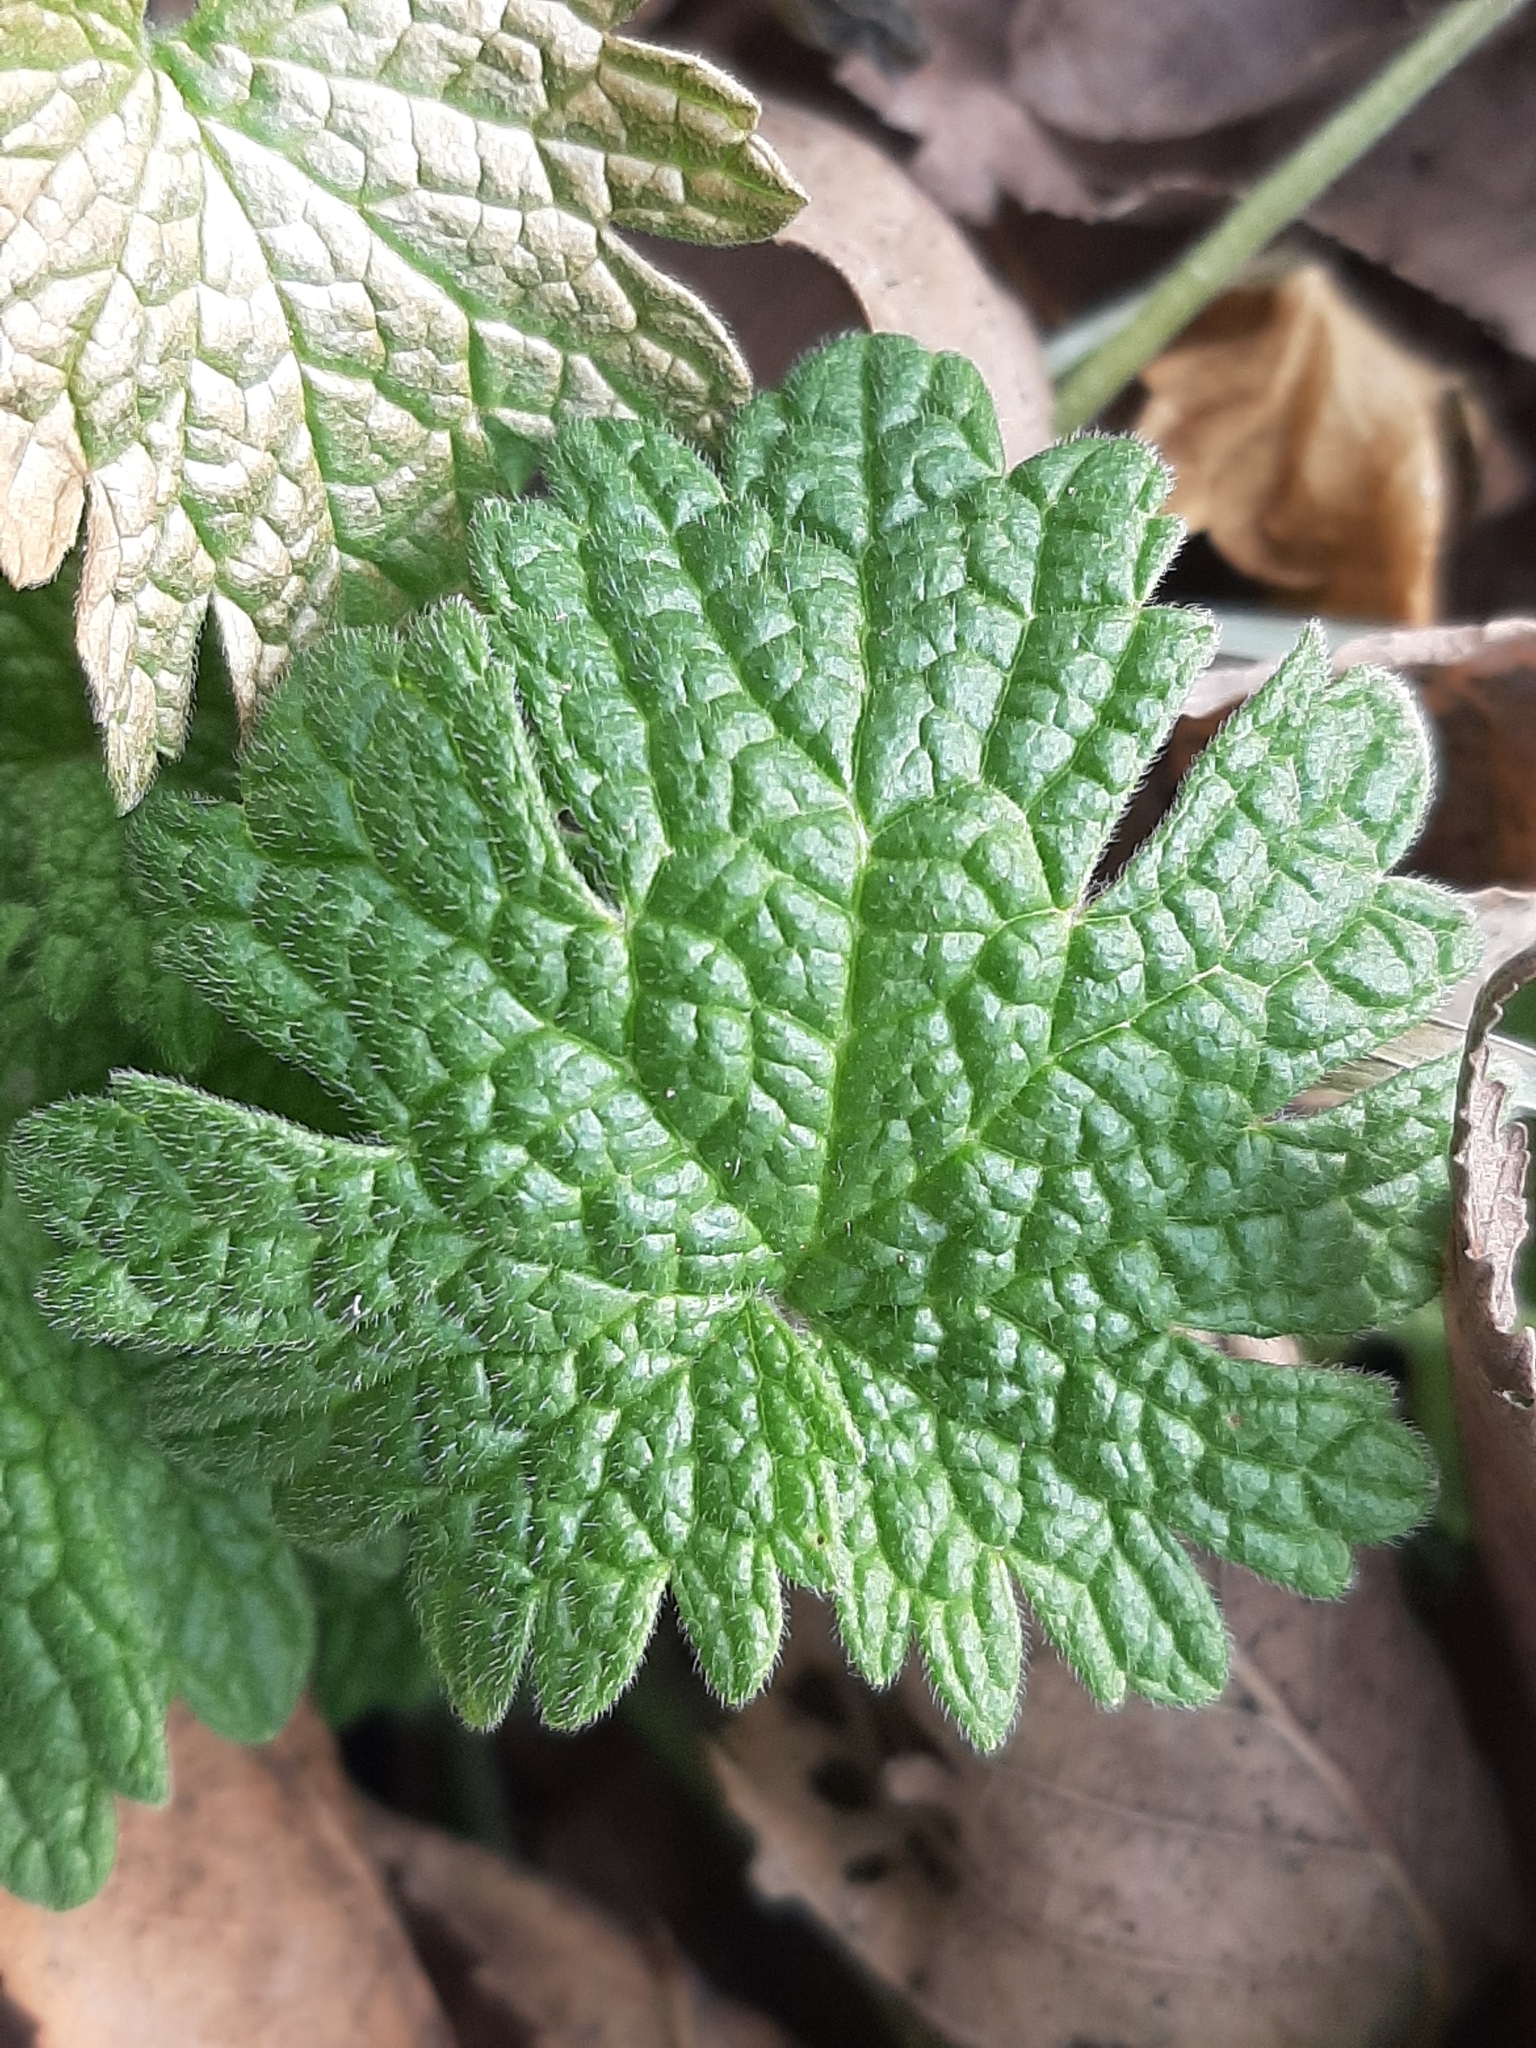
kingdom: Plantae
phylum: Tracheophyta
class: Magnoliopsida
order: Lamiales
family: Lamiaceae
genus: Leonurus
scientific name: Leonurus cardiaca
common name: Motherwort
